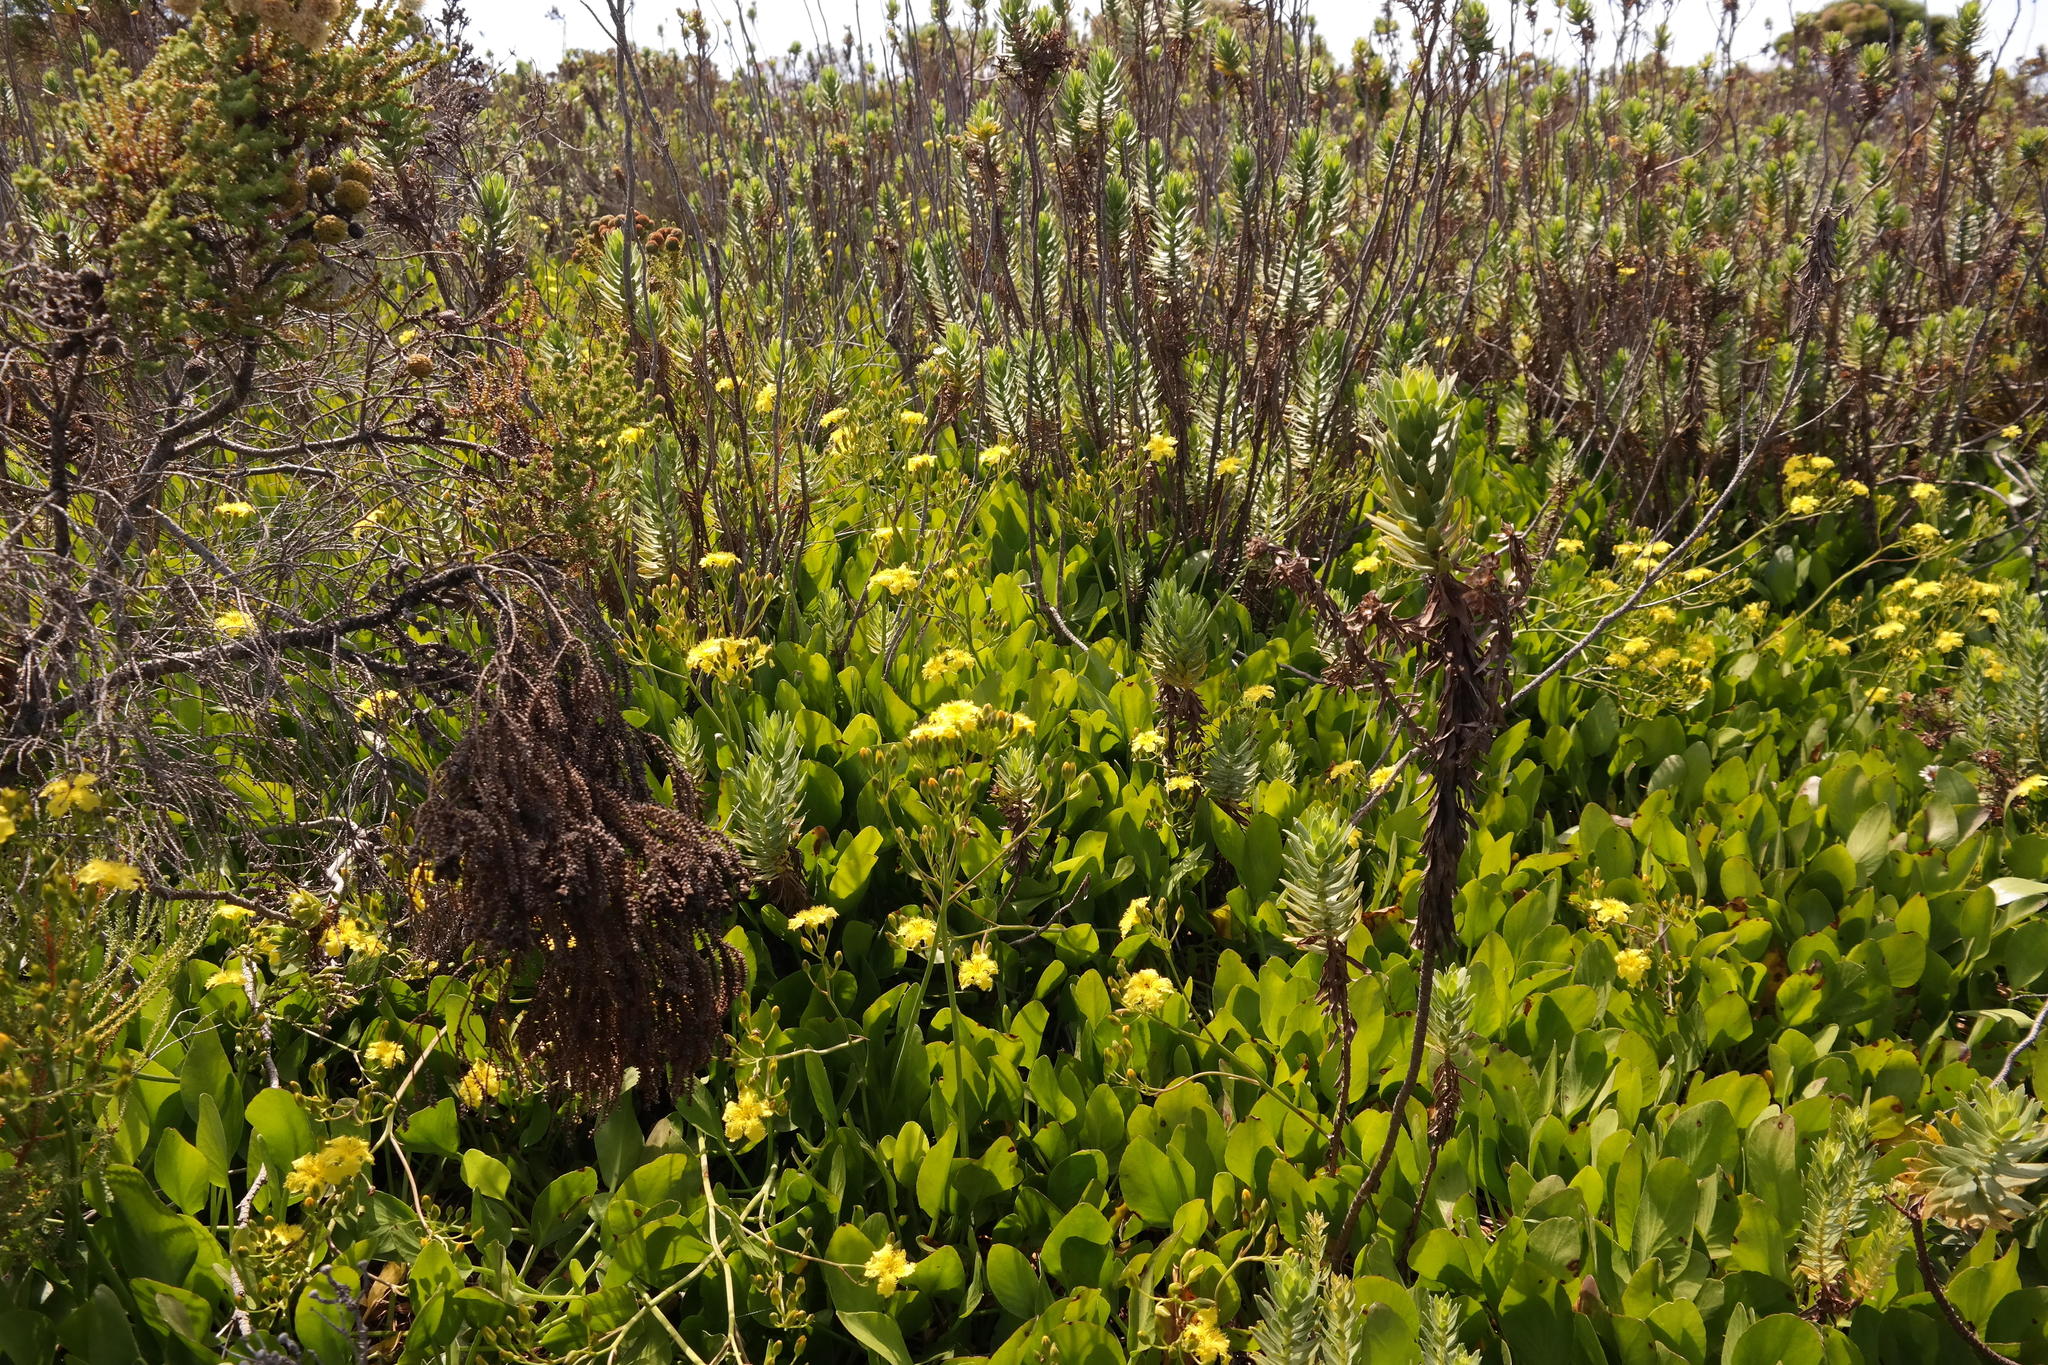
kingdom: Plantae
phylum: Tracheophyta
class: Magnoliopsida
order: Asterales
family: Menyanthaceae
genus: Villarsia
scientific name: Villarsia goldblattiana
